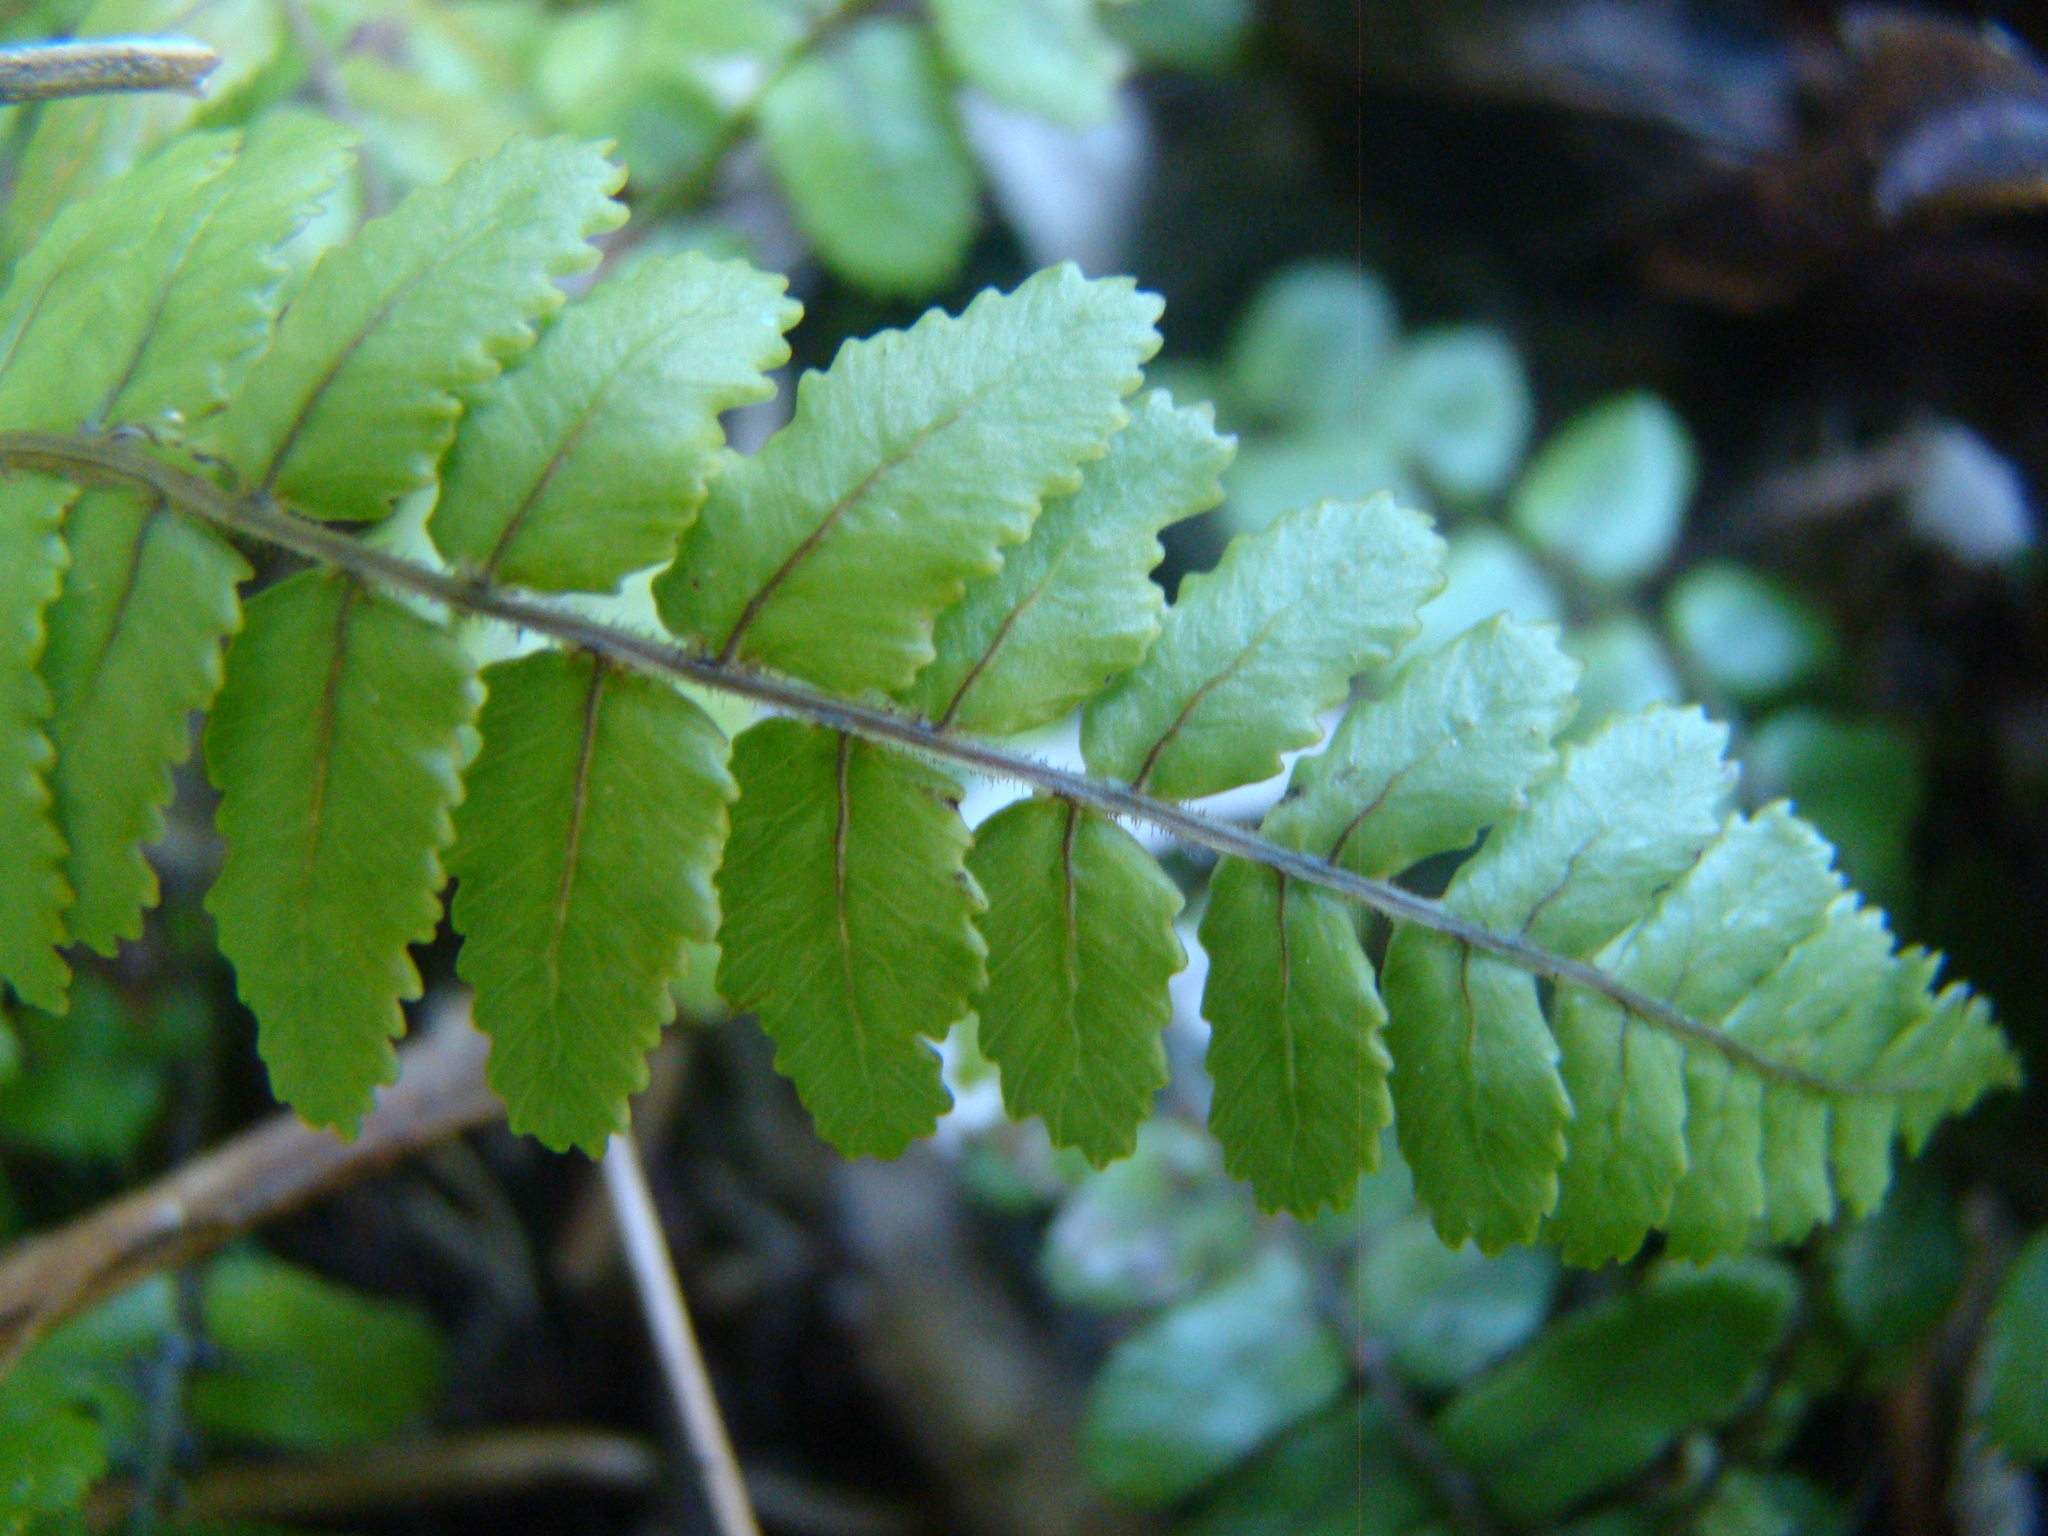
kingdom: Plantae
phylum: Tracheophyta
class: Polypodiopsida
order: Polypodiales
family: Blechnaceae
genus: Icarus
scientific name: Icarus filiformis
